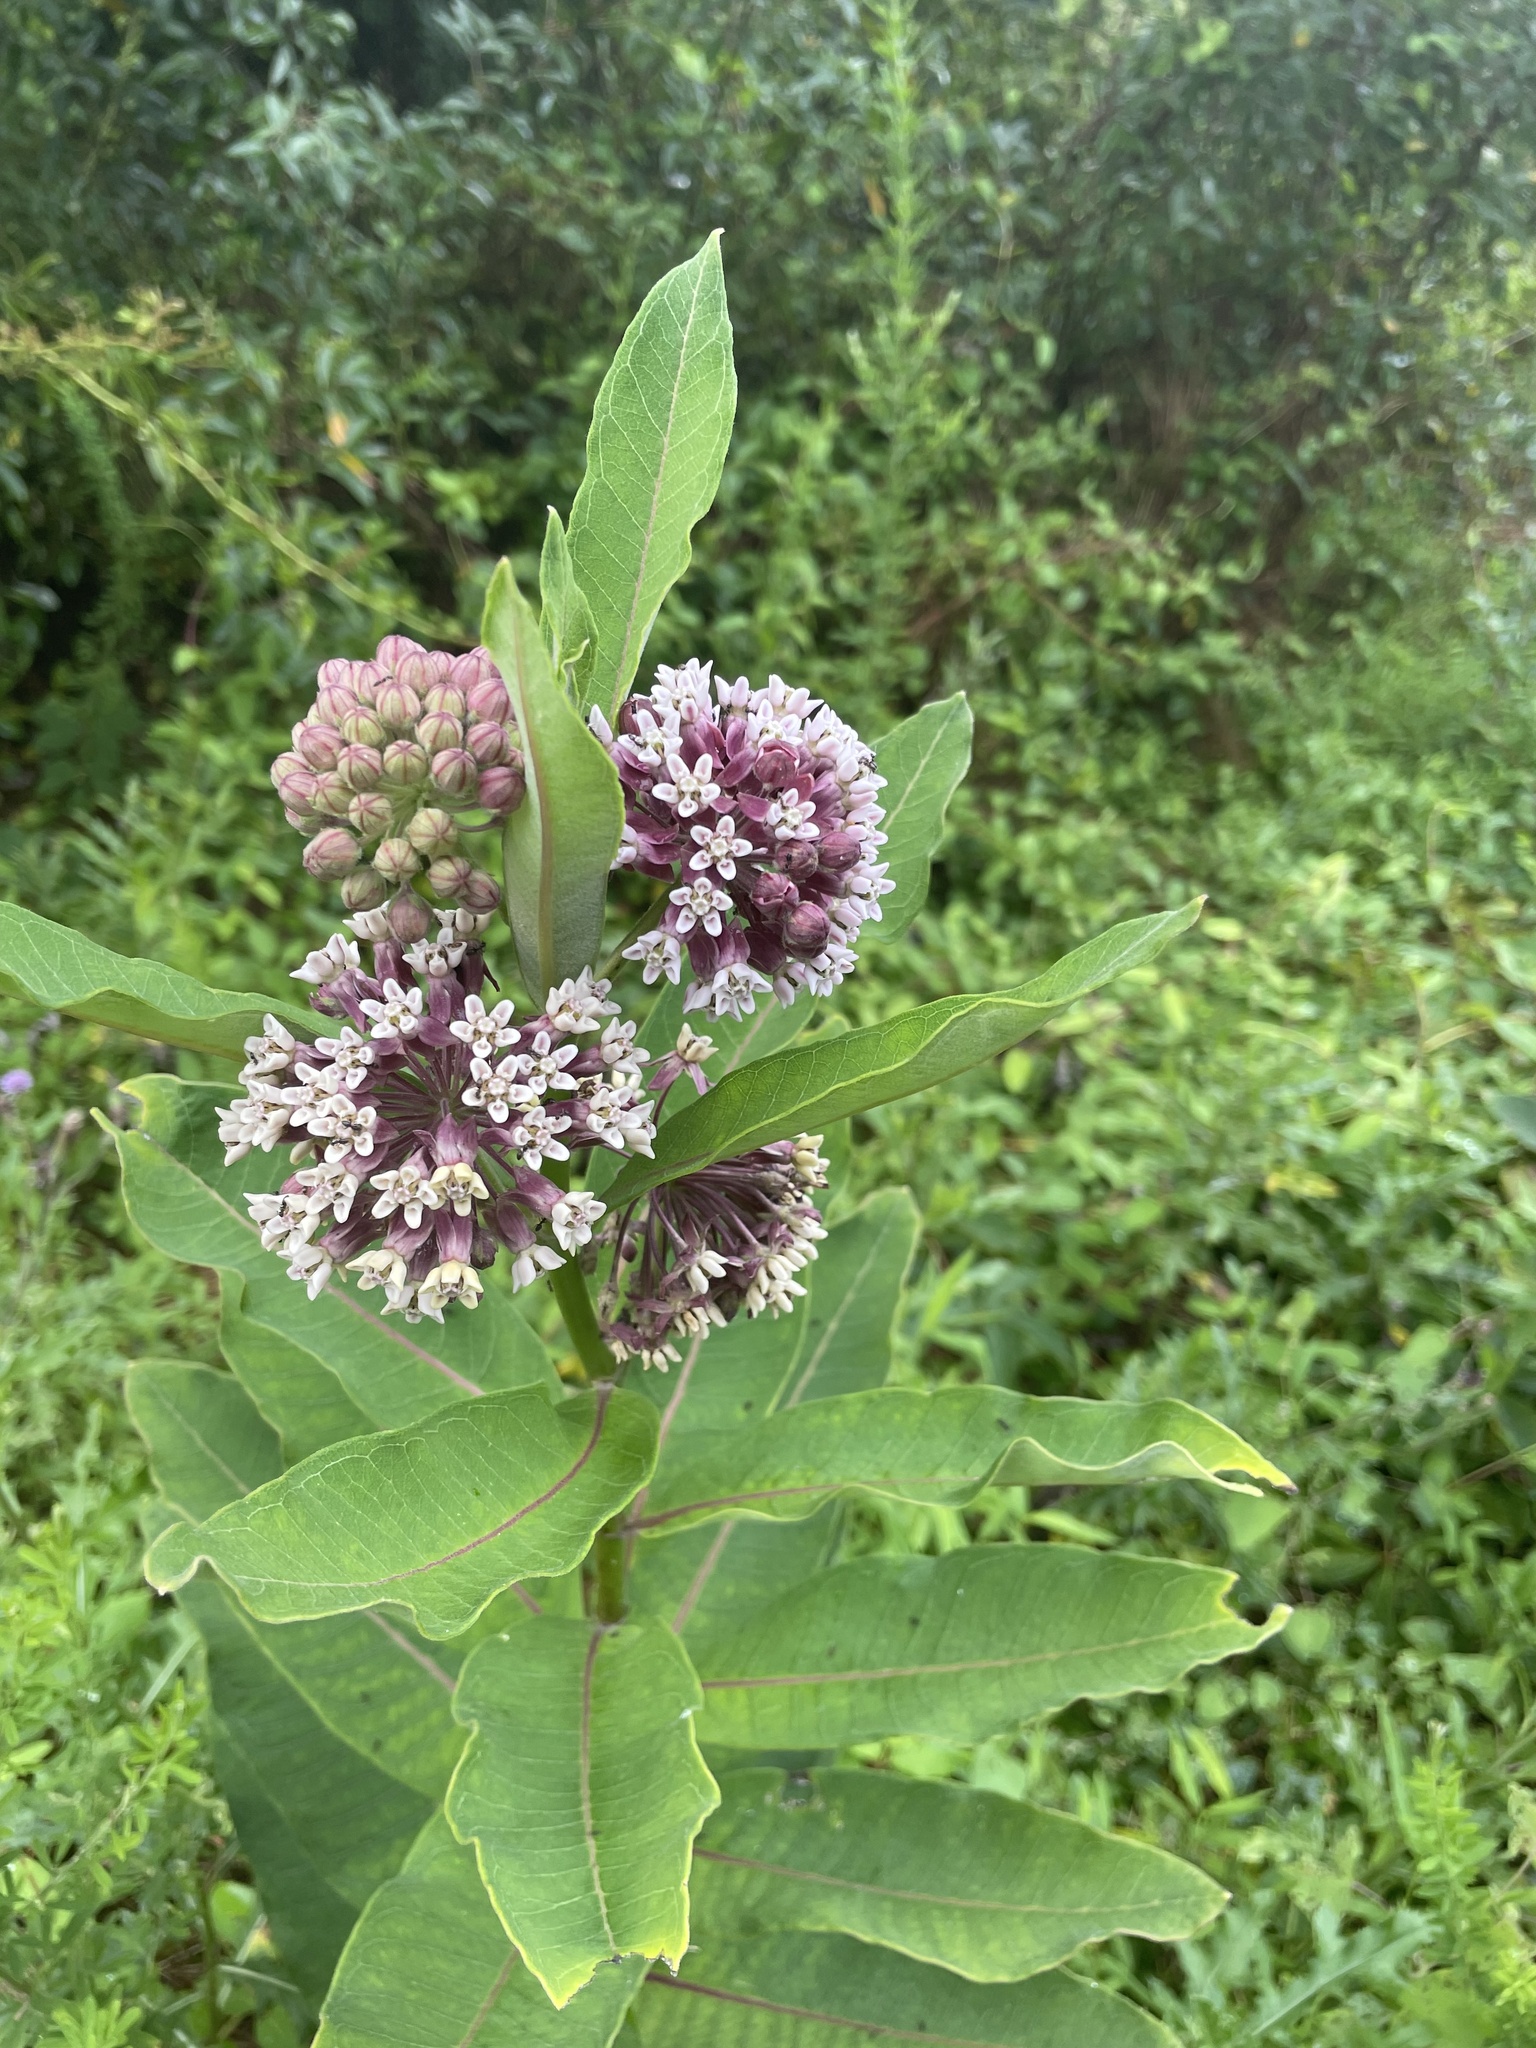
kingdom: Plantae
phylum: Tracheophyta
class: Magnoliopsida
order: Gentianales
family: Apocynaceae
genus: Asclepias
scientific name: Asclepias syriaca
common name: Common milkweed
